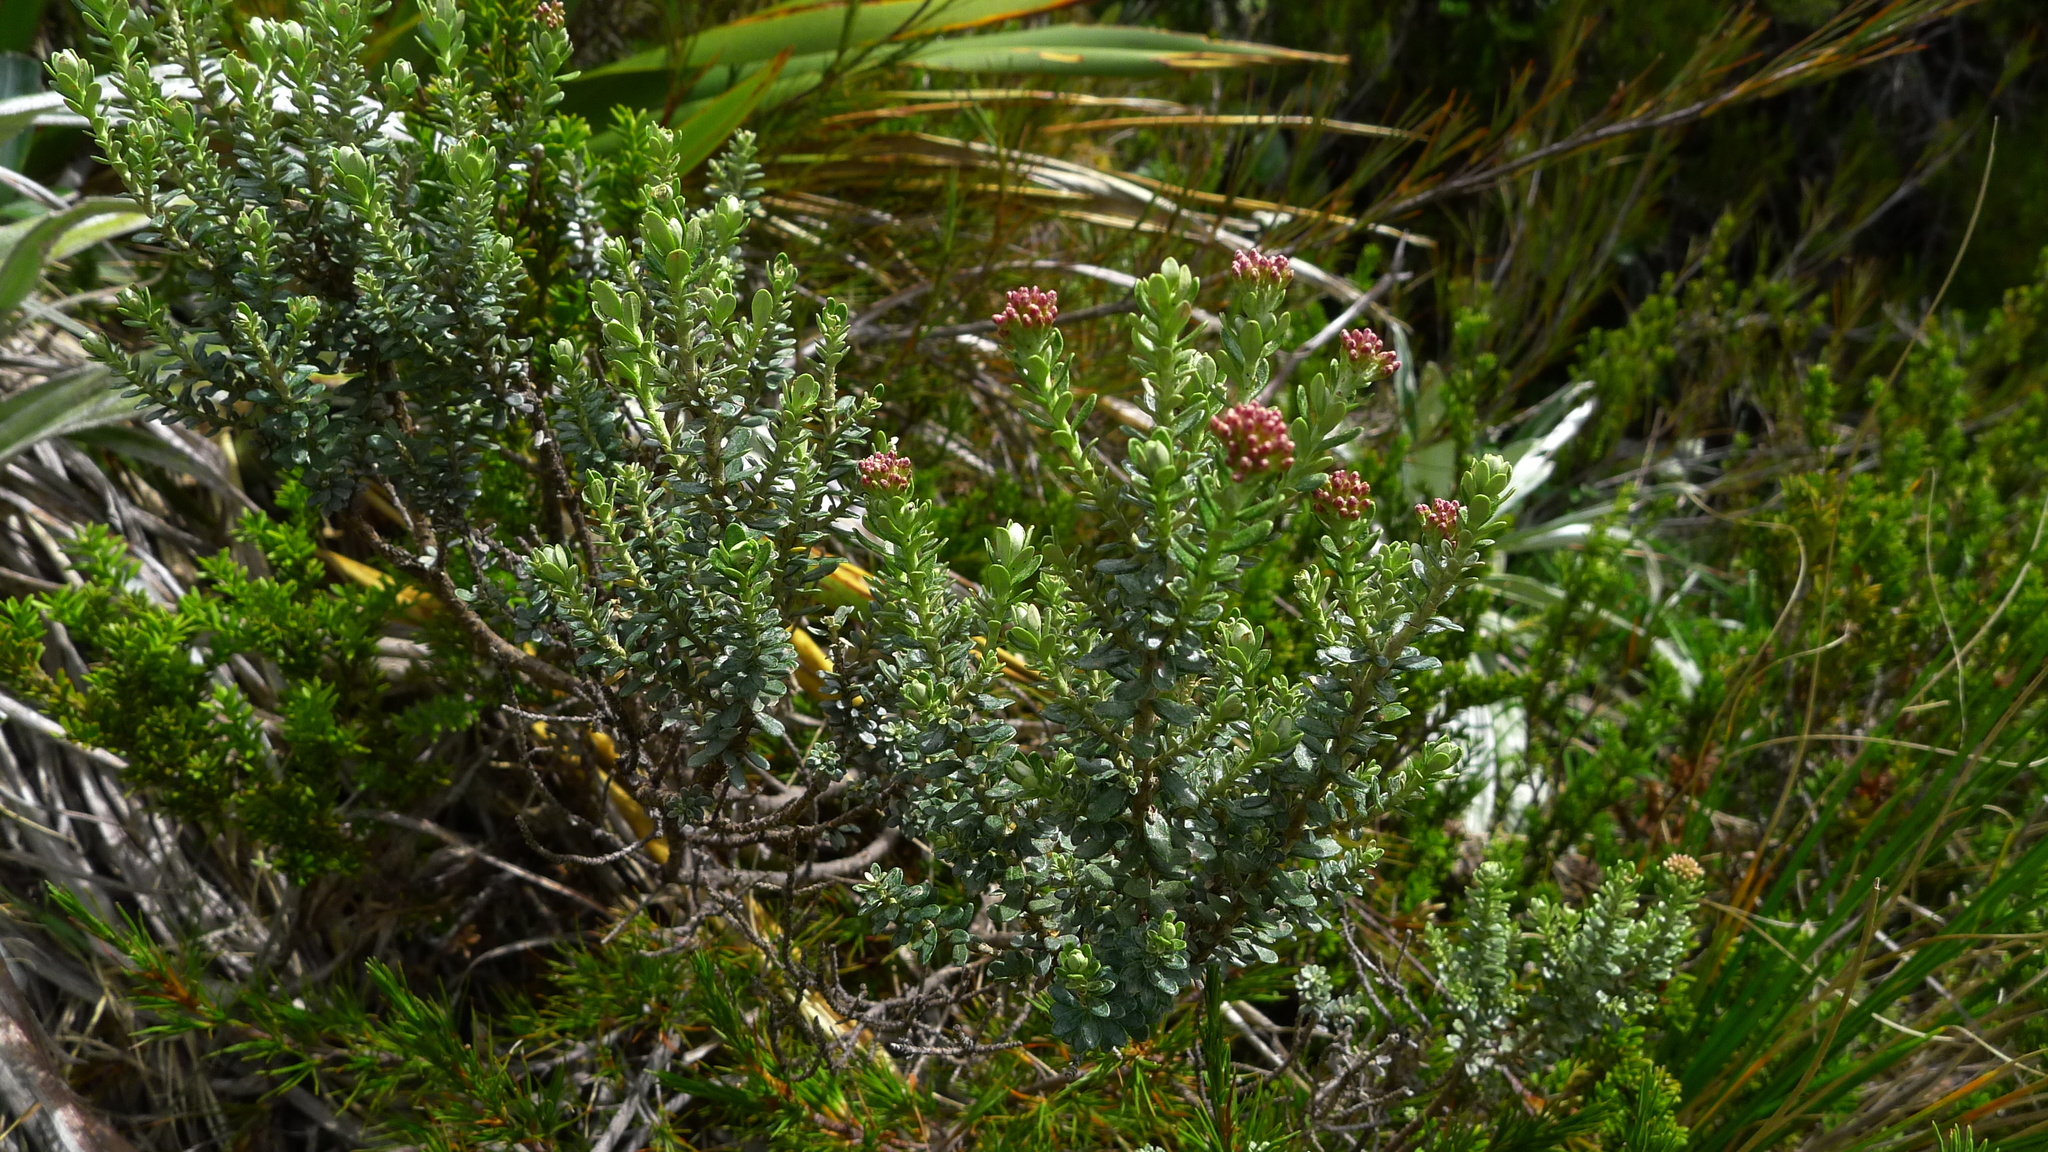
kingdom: Plantae
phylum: Tracheophyta
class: Magnoliopsida
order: Asterales
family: Asteraceae
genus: Ozothamnus
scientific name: Ozothamnus leptophyllus
